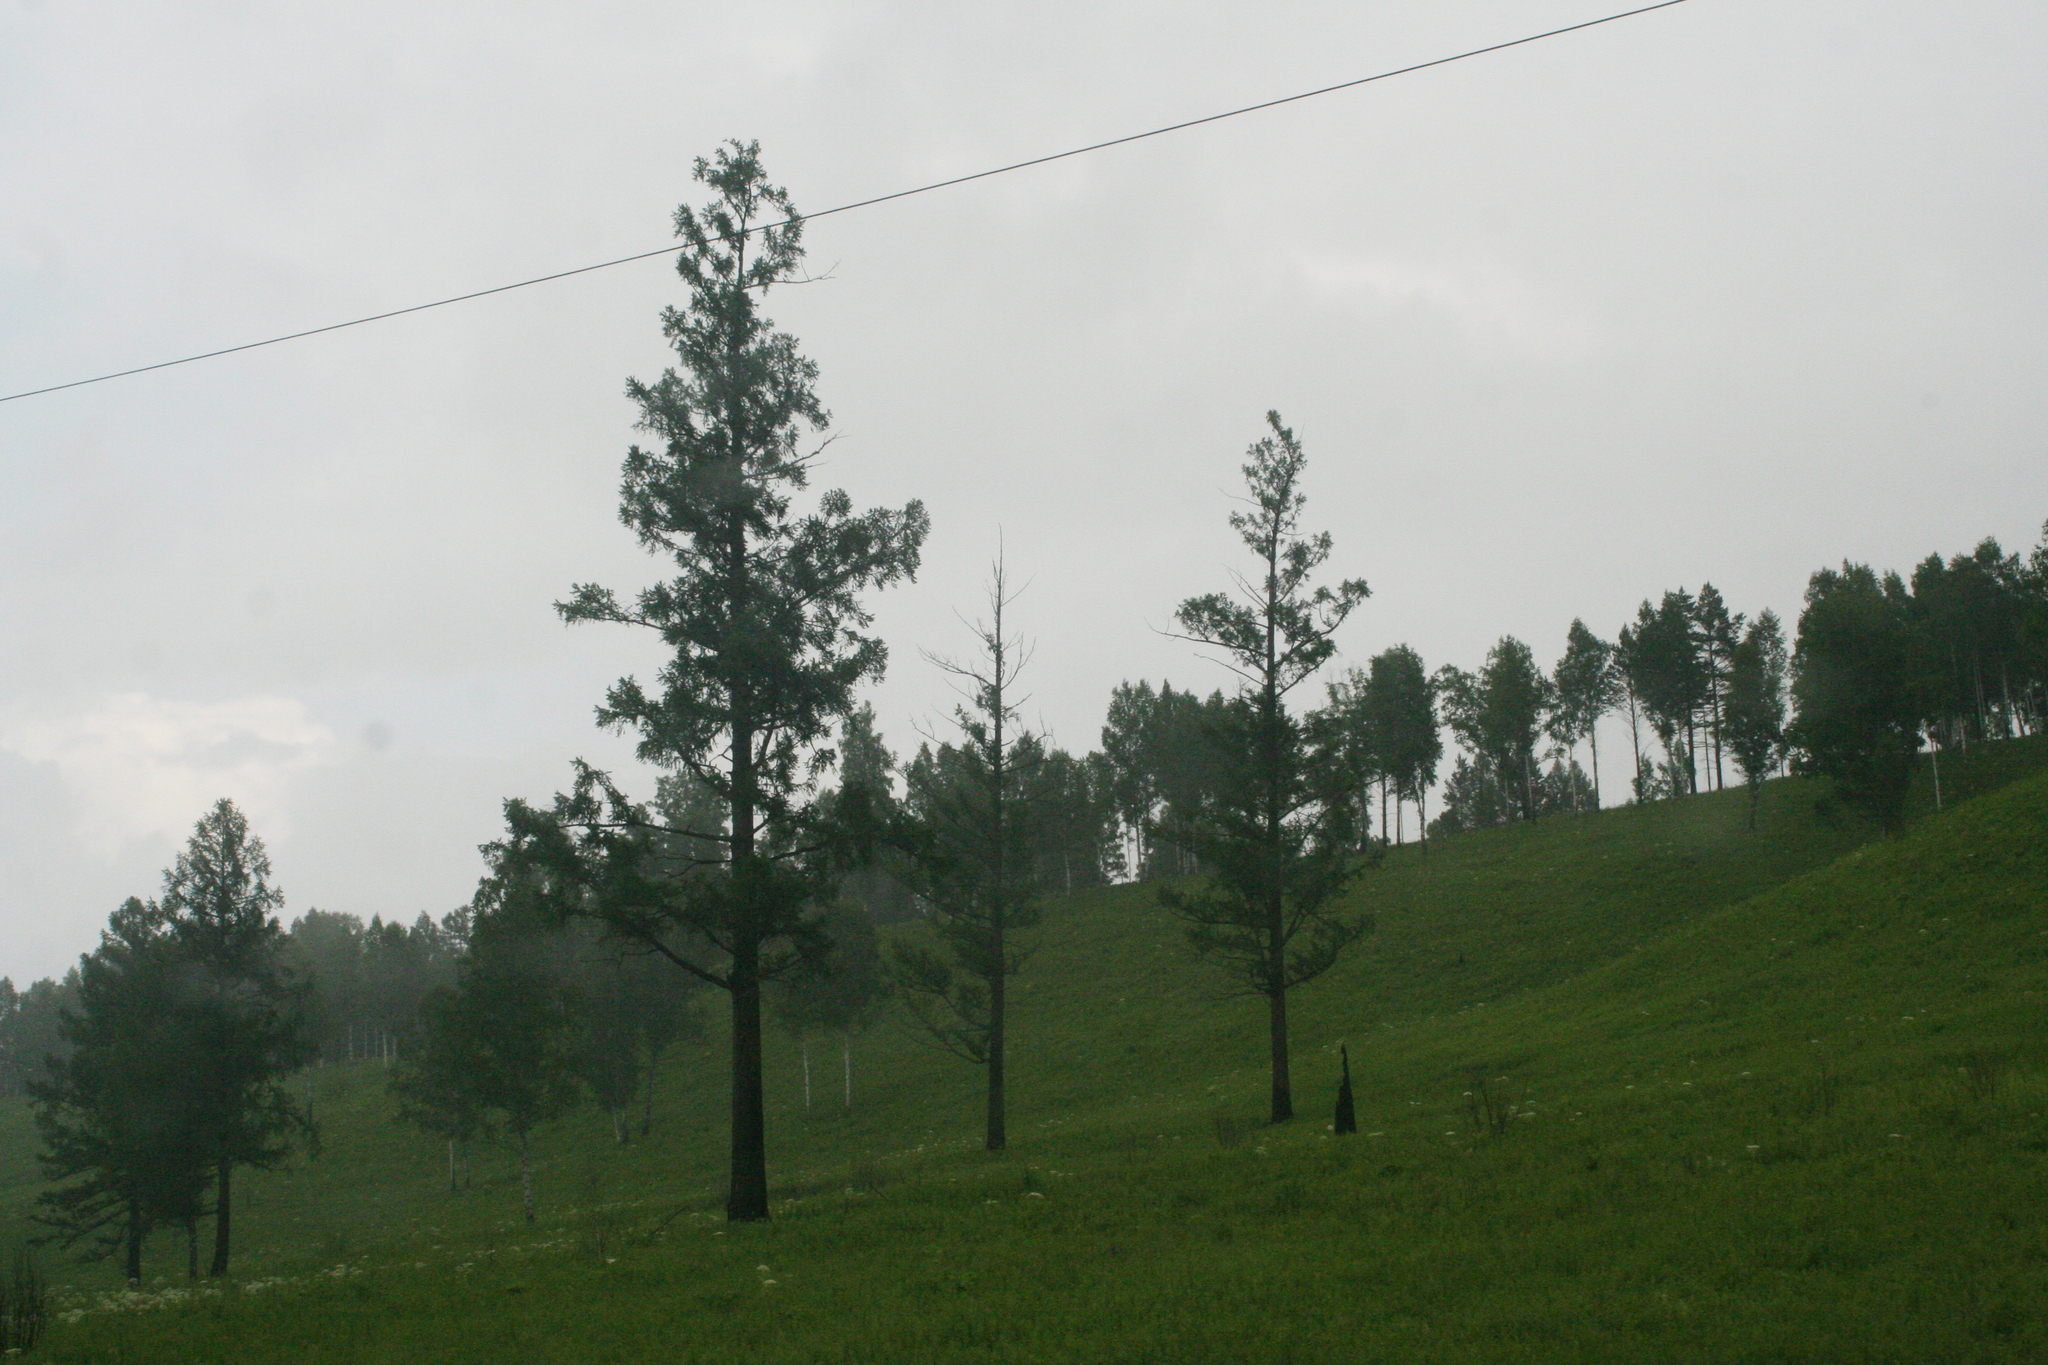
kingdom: Plantae
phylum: Tracheophyta
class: Pinopsida
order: Pinales
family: Pinaceae
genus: Larix
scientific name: Larix sibirica
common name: Siberian larch
